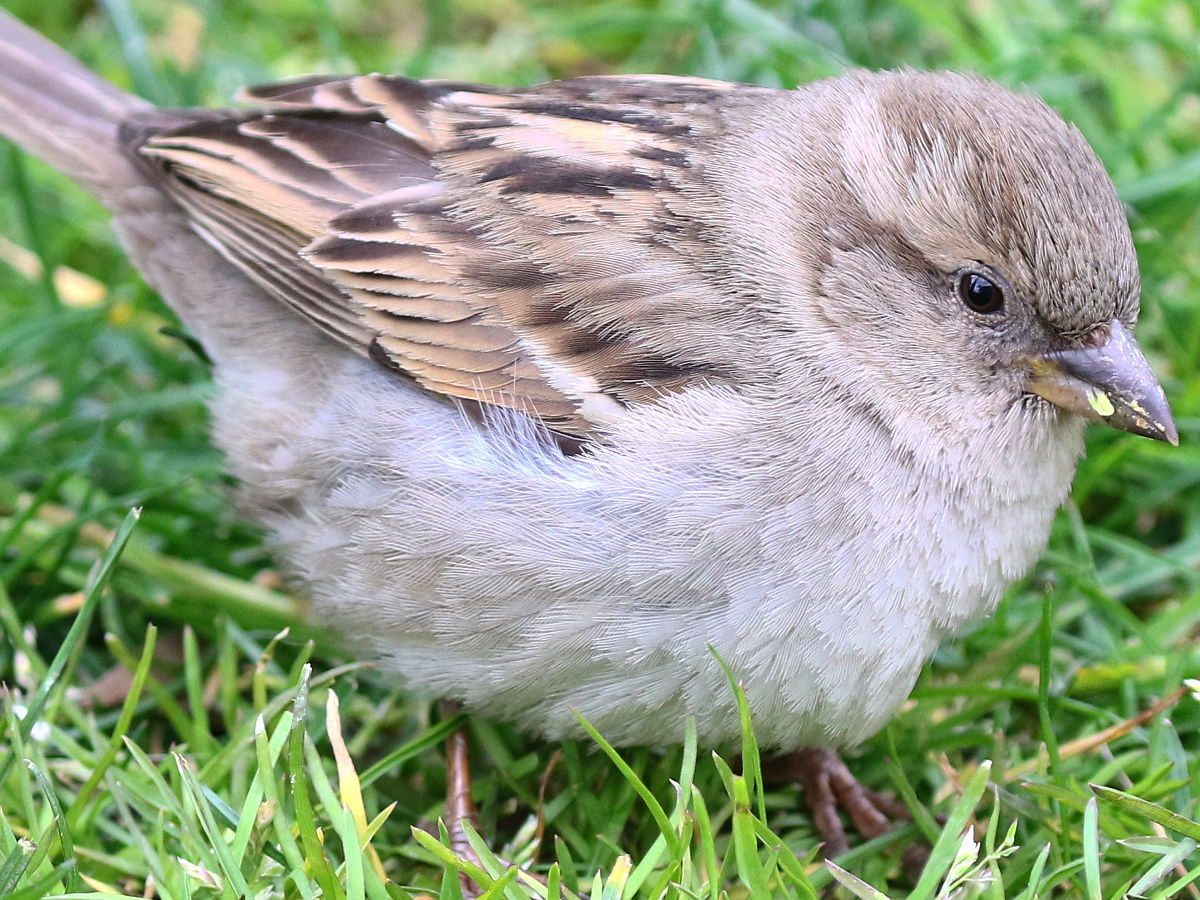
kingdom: Animalia
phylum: Chordata
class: Aves
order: Passeriformes
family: Passeridae
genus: Passer
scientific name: Passer domesticus
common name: House sparrow
